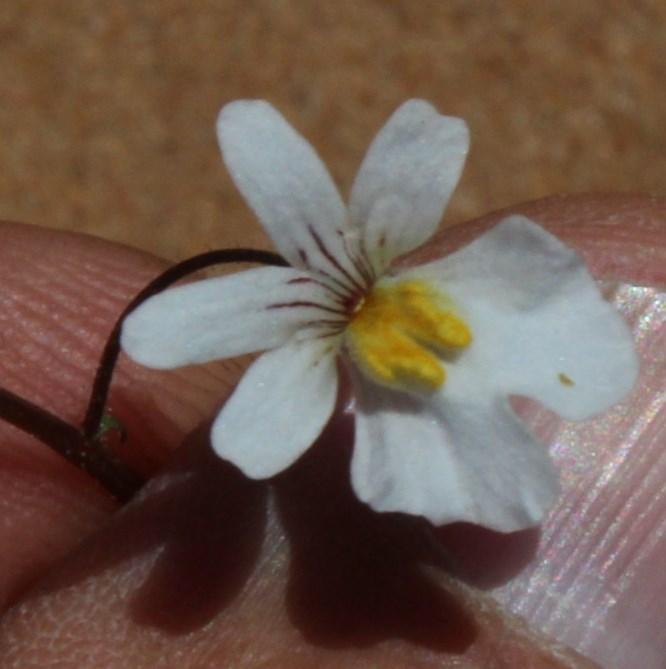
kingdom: Plantae
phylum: Tracheophyta
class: Magnoliopsida
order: Lamiales
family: Scrophulariaceae
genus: Nemesia
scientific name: Nemesia bicornis
